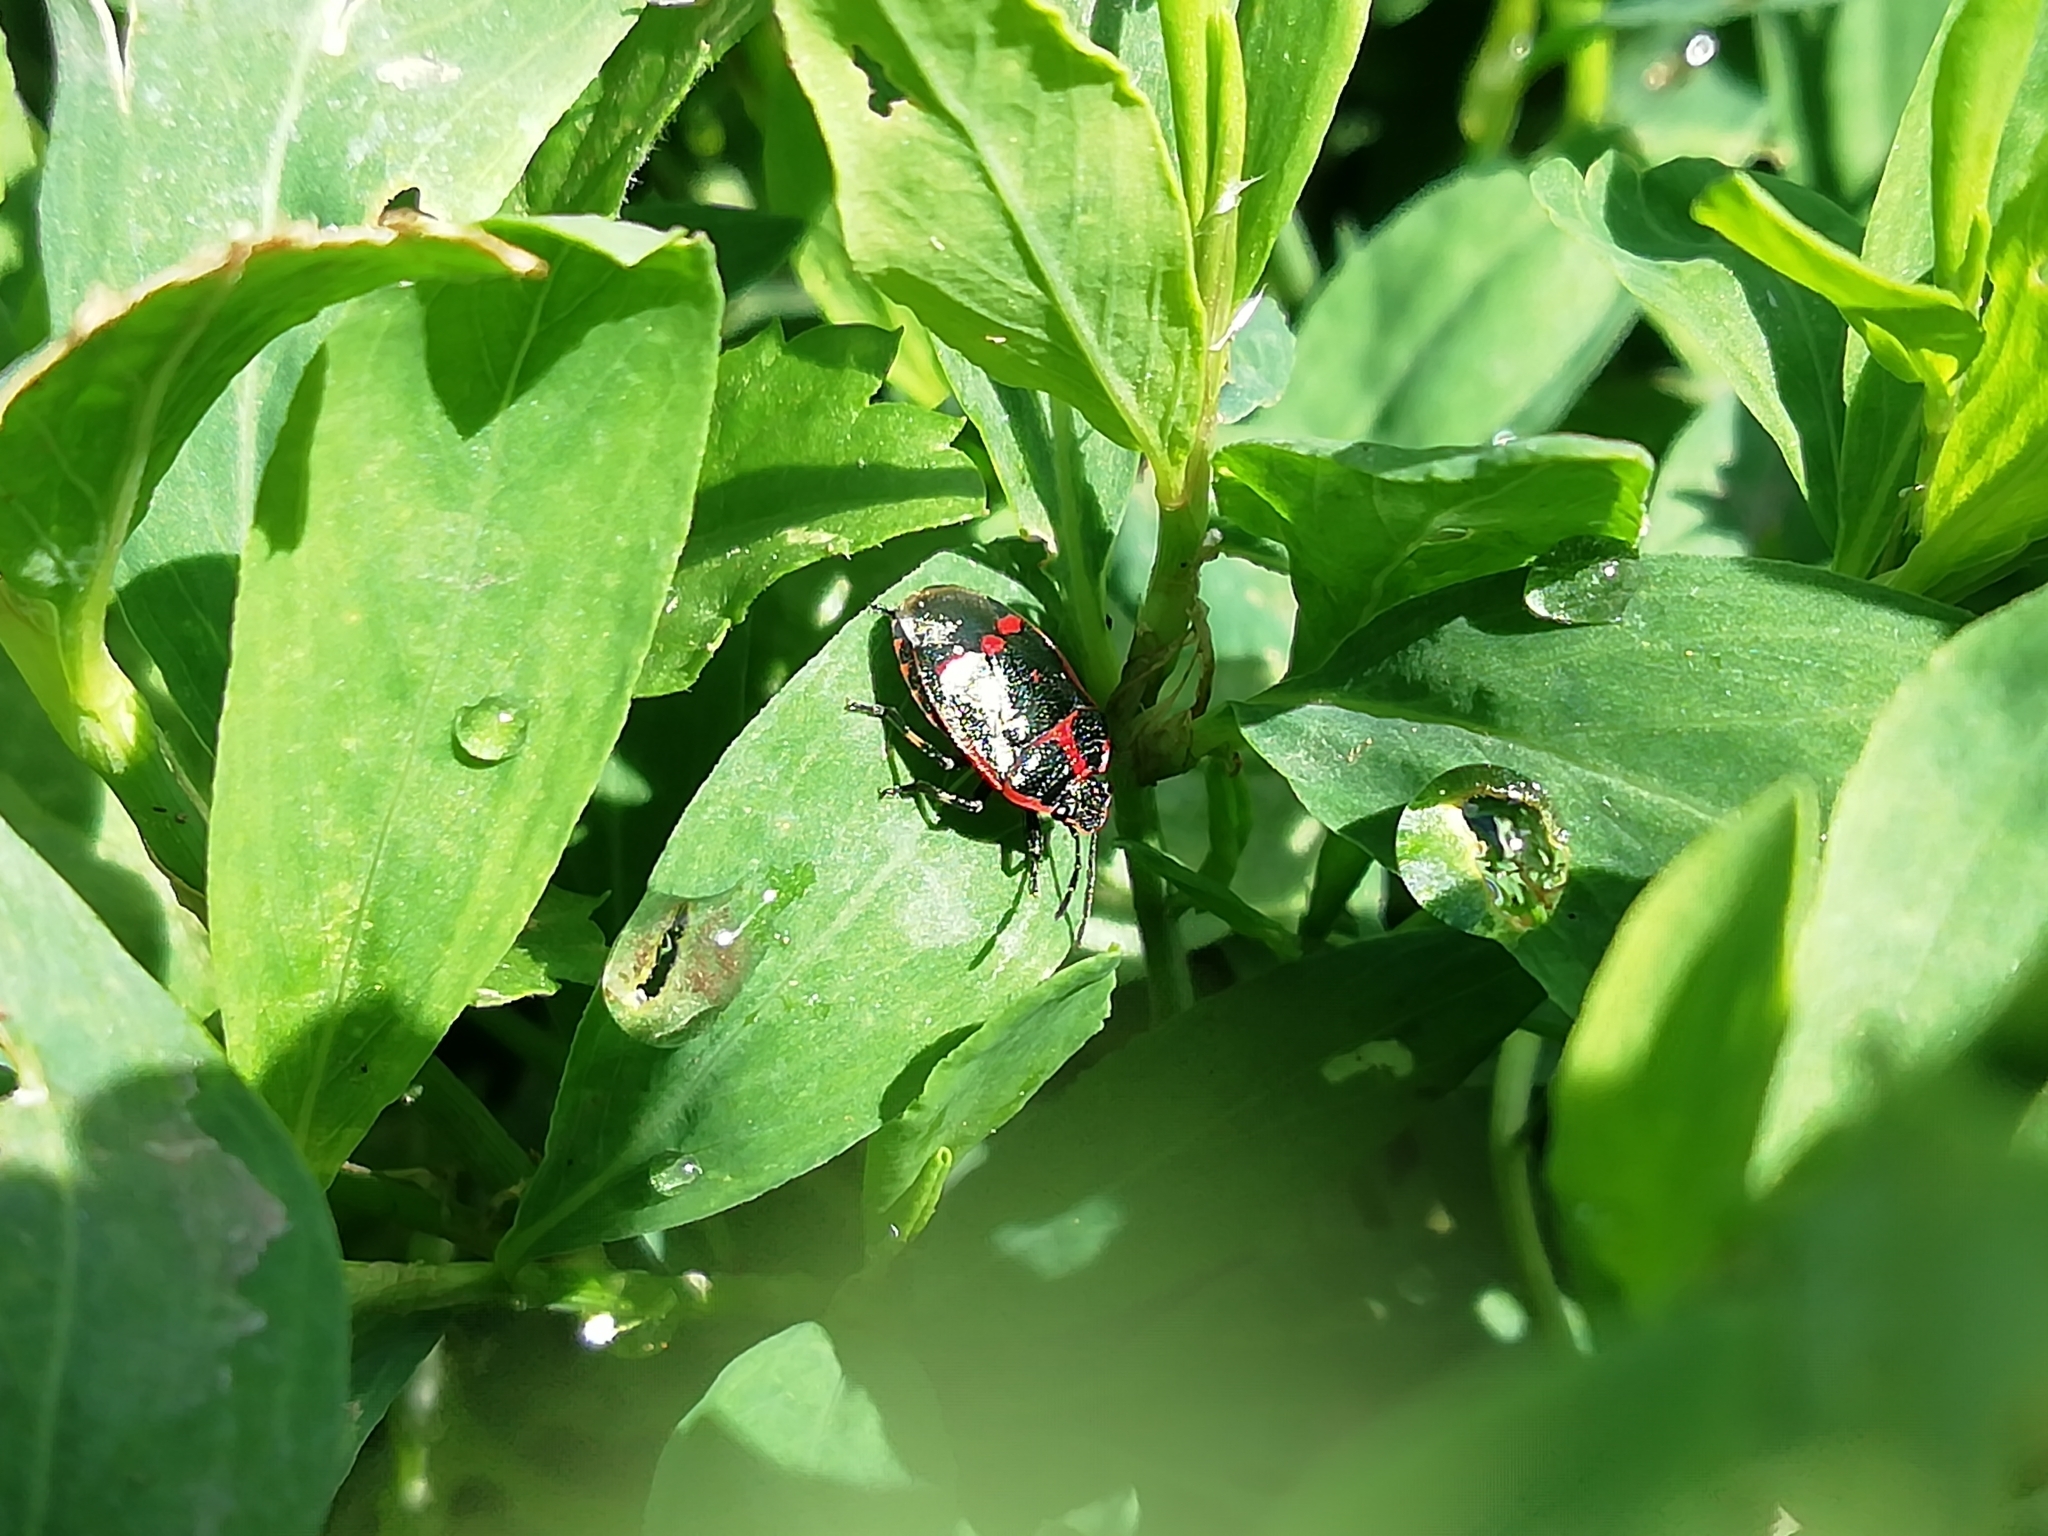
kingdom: Animalia
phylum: Arthropoda
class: Insecta
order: Hemiptera
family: Pentatomidae
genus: Eurydema
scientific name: Eurydema oleracea
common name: Cabbage bug
